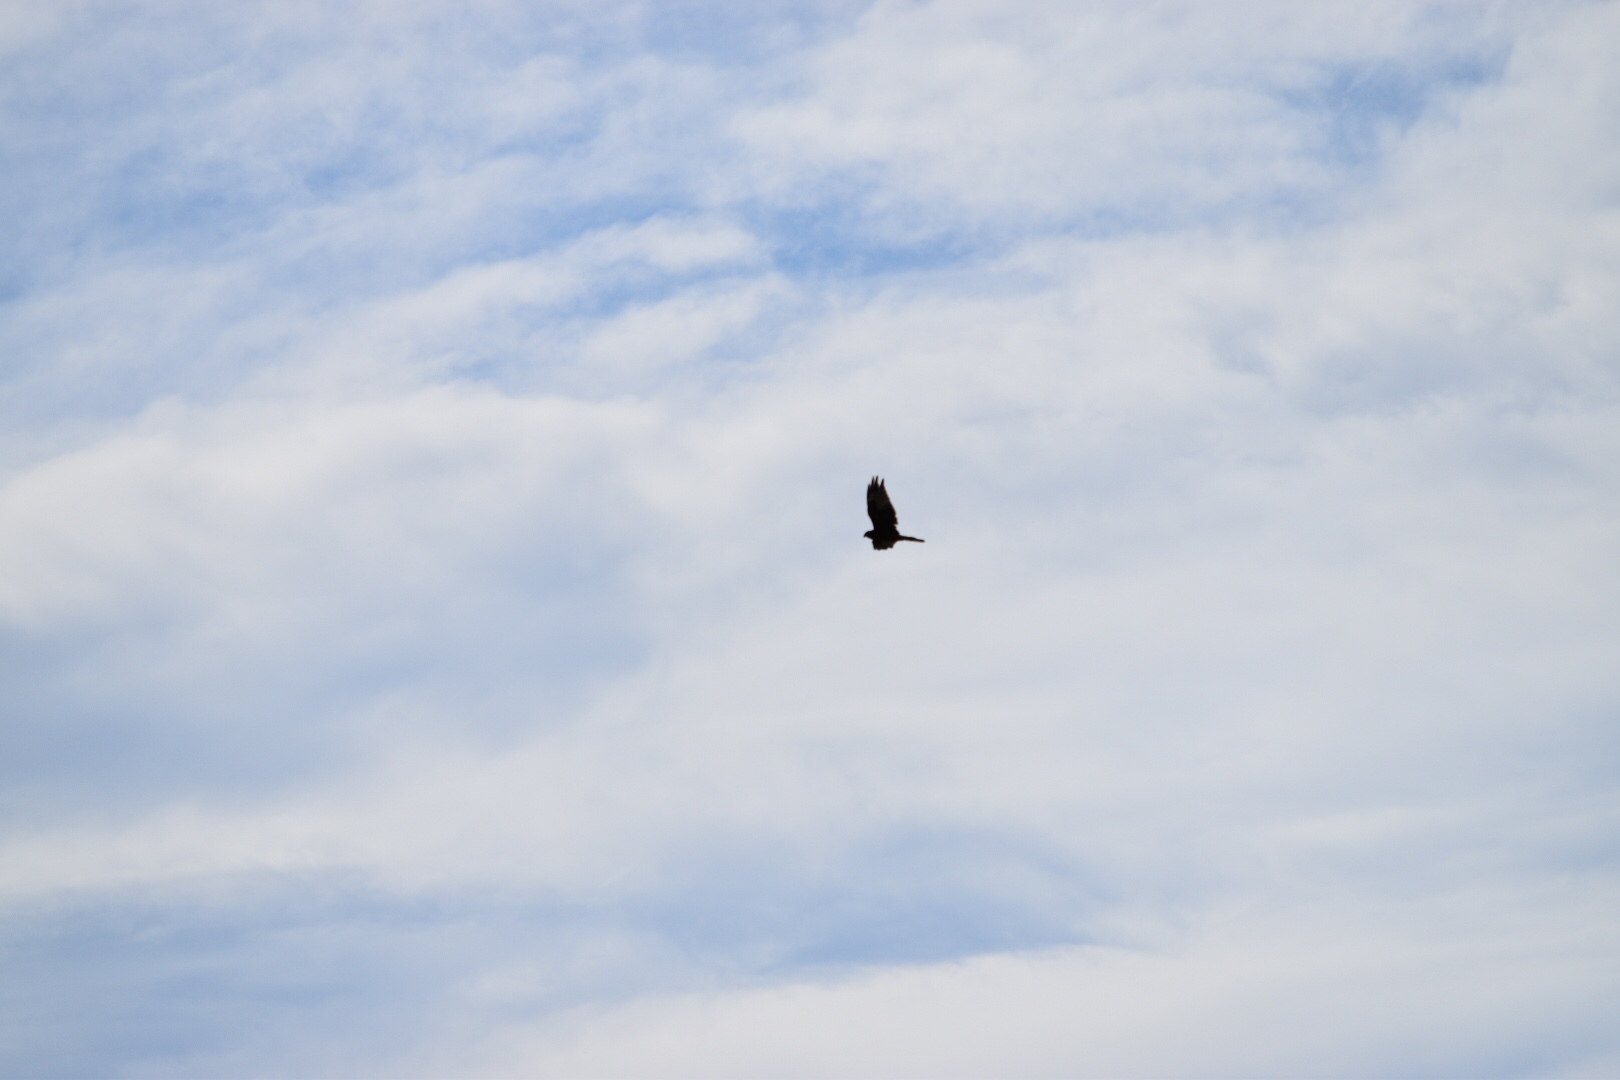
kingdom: Animalia
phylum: Chordata
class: Aves
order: Accipitriformes
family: Accipitridae
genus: Circus
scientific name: Circus approximans
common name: Swamp harrier
